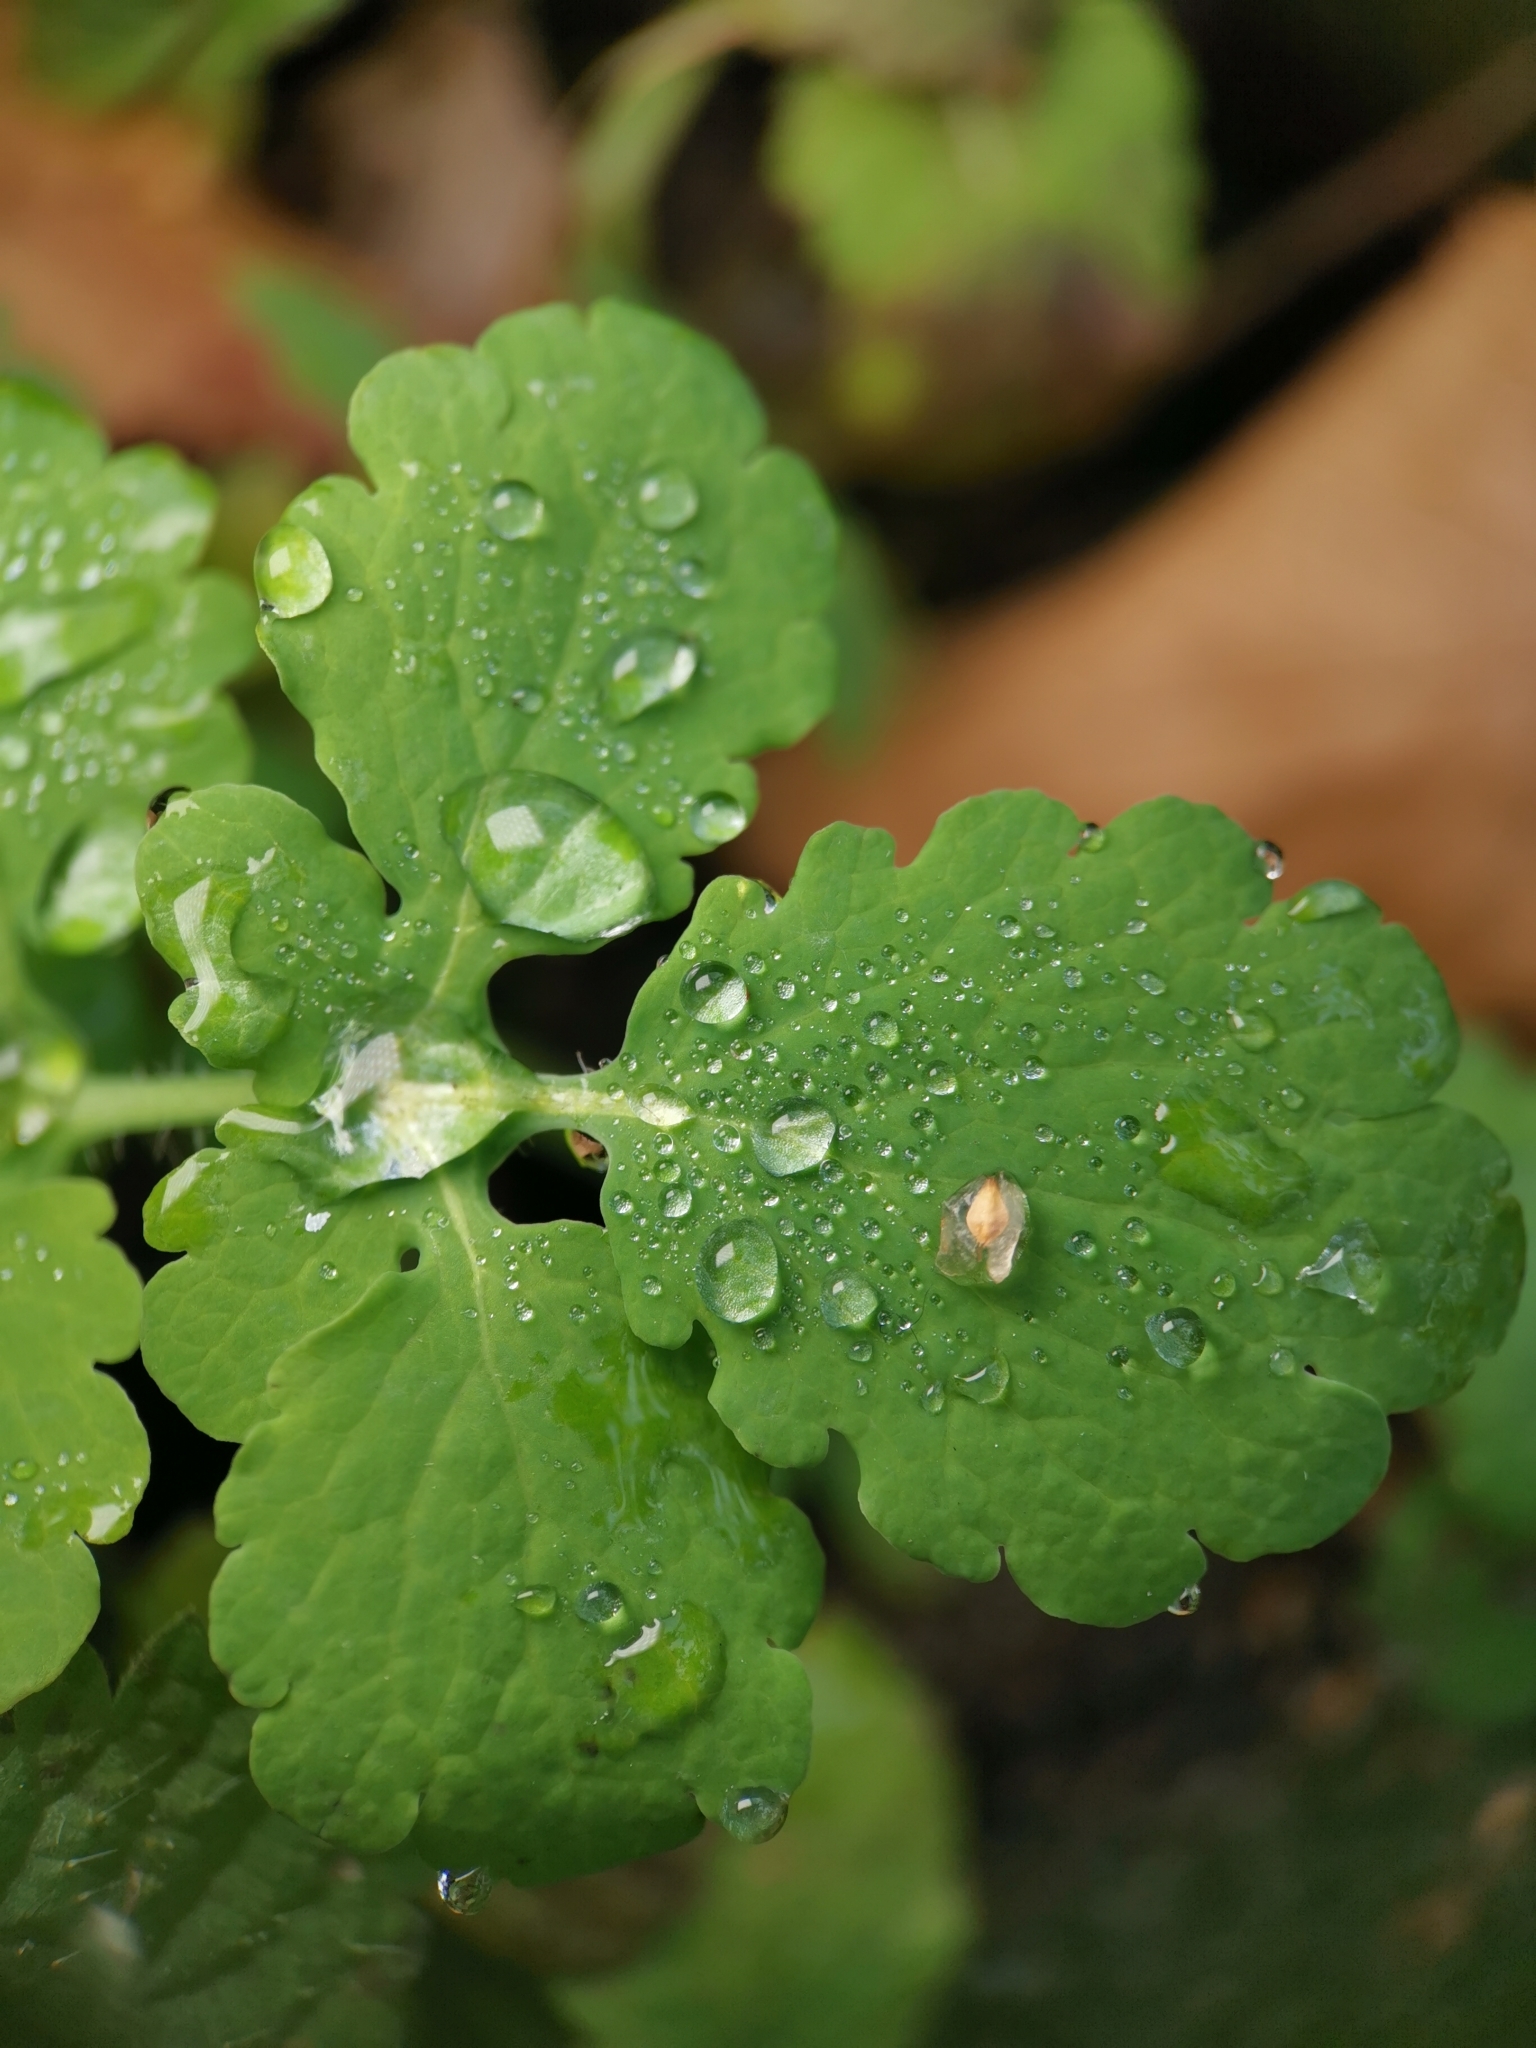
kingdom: Plantae
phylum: Tracheophyta
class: Magnoliopsida
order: Ranunculales
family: Papaveraceae
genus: Chelidonium
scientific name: Chelidonium majus
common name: Greater celandine
